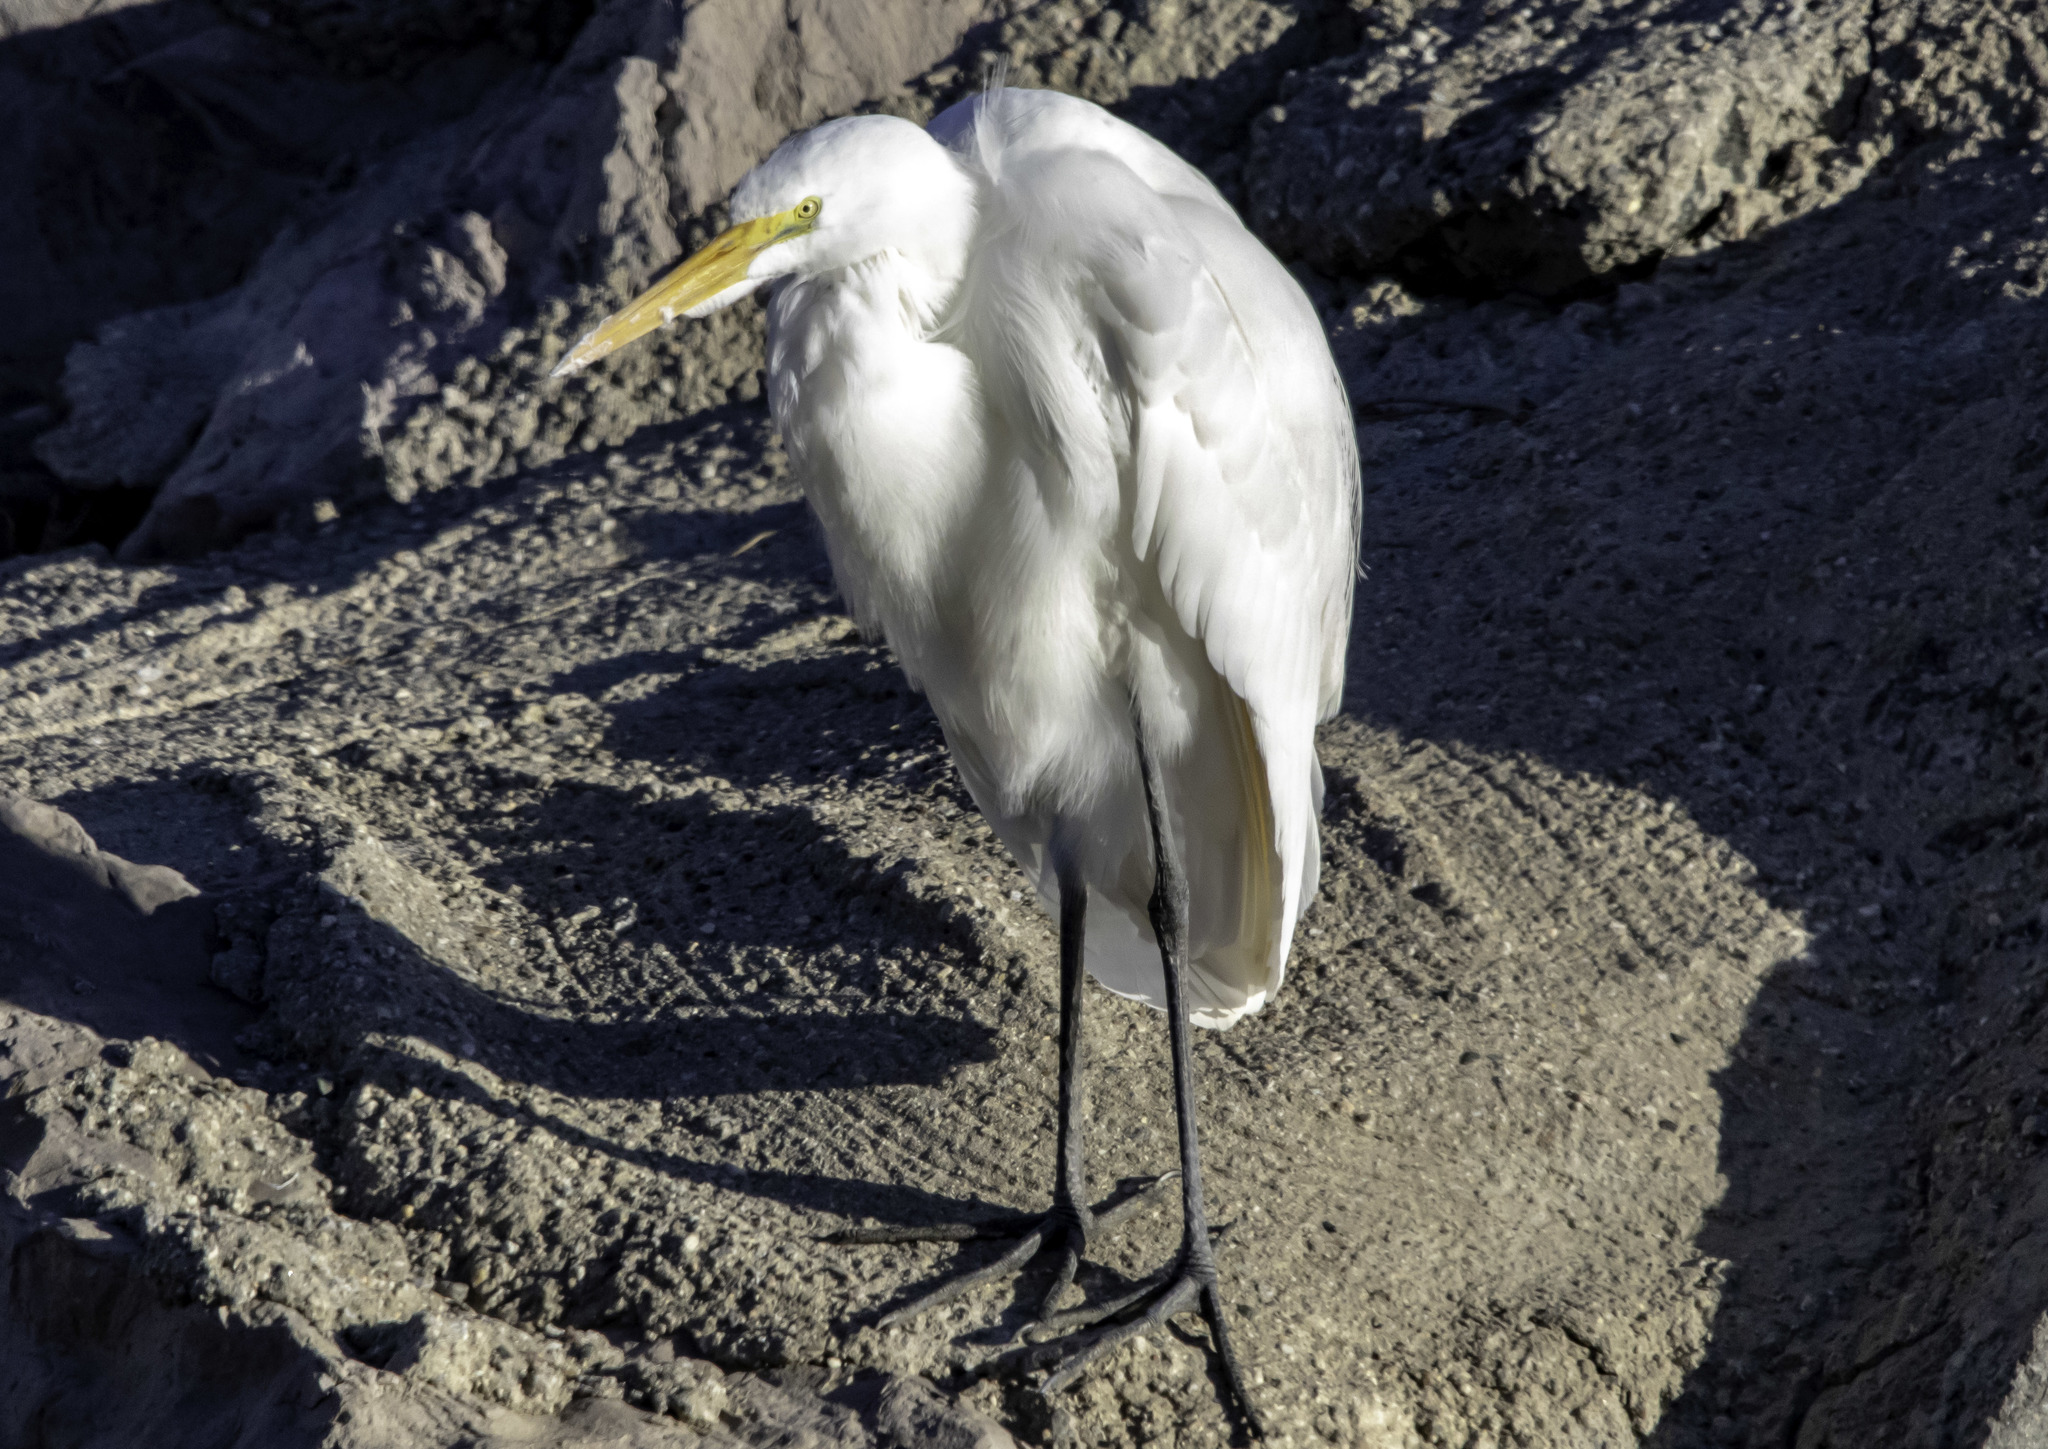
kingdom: Animalia
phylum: Chordata
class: Aves
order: Pelecaniformes
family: Ardeidae
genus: Ardea
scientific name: Ardea alba
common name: Great egret
